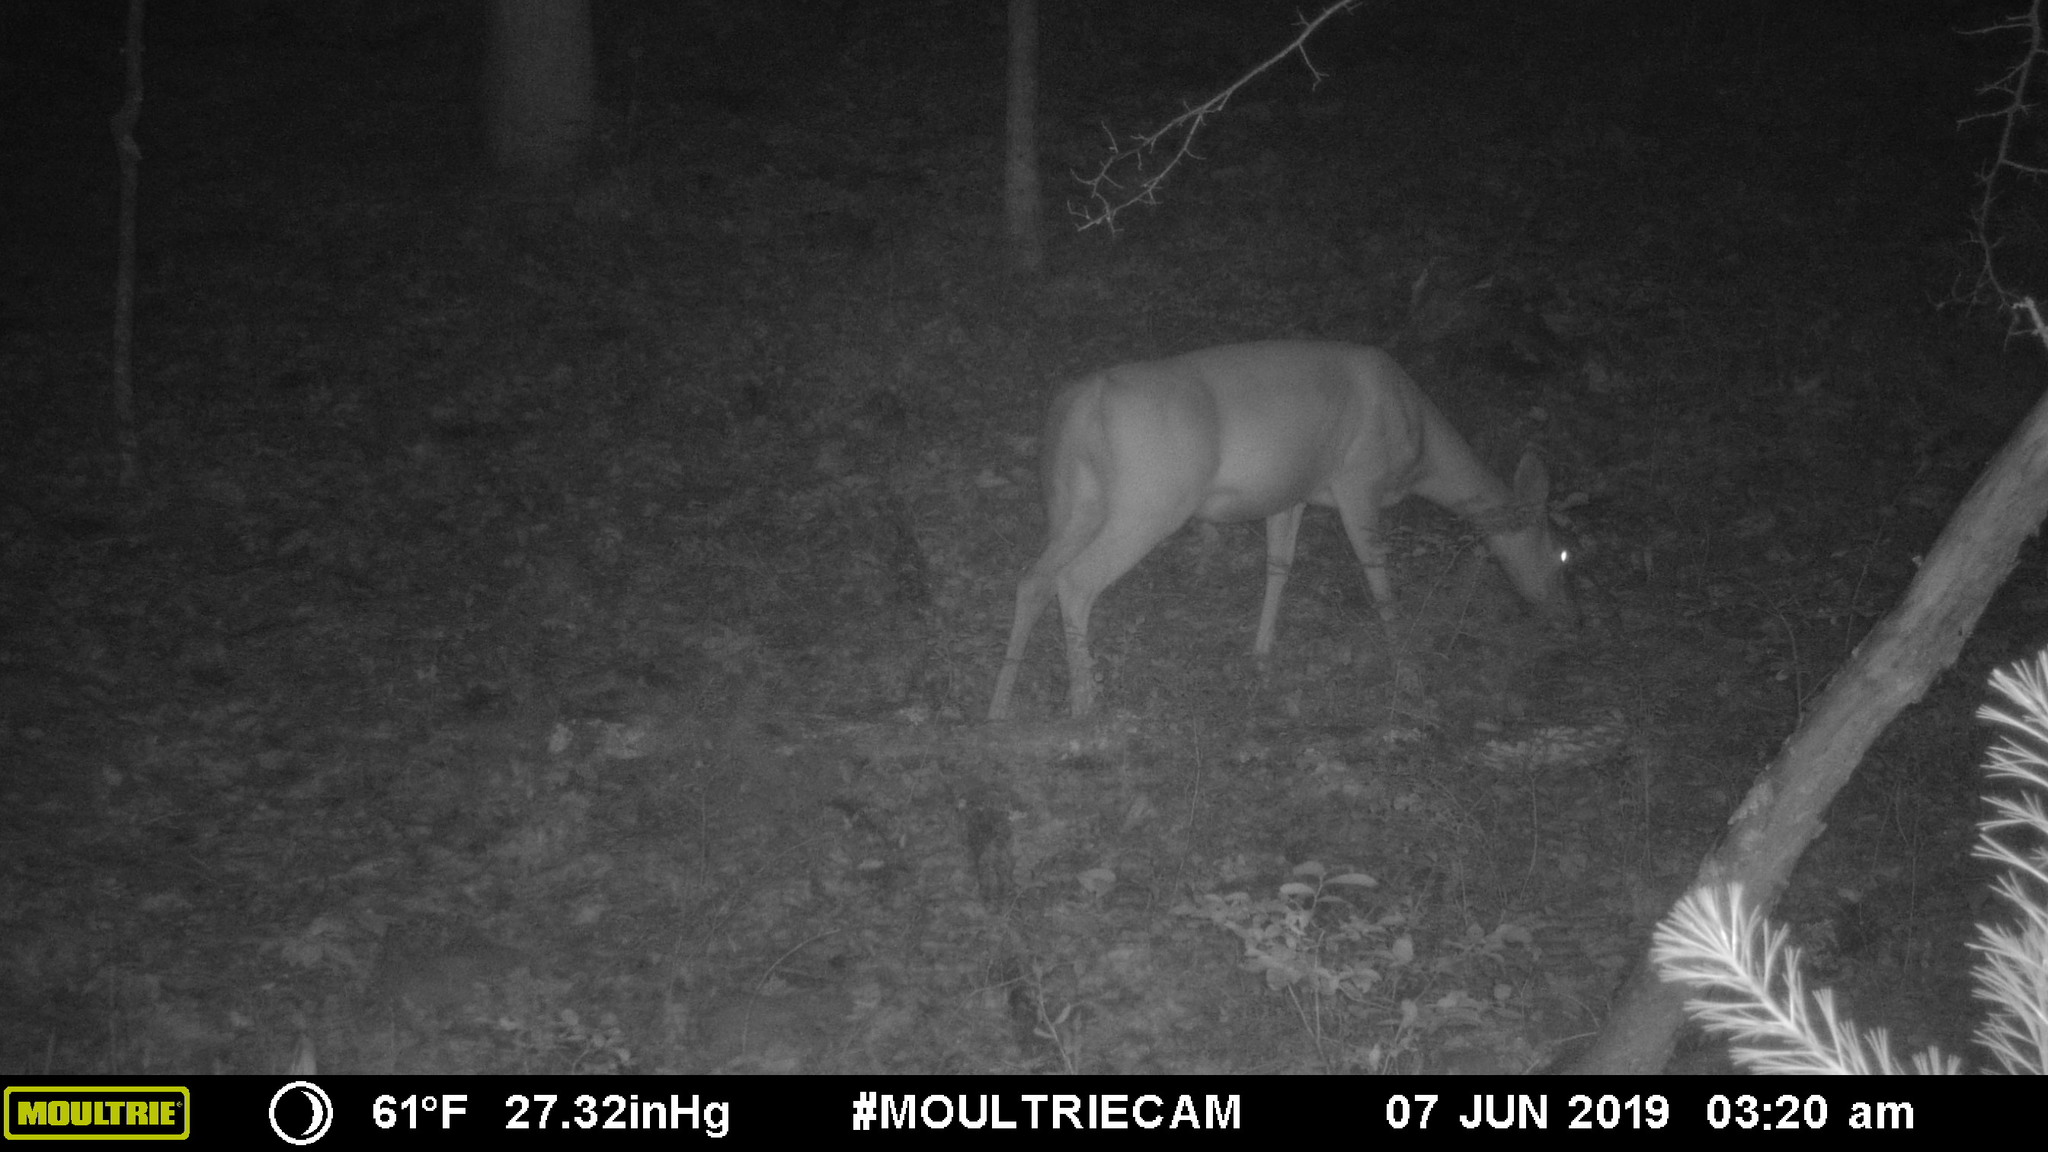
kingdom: Animalia
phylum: Chordata
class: Mammalia
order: Artiodactyla
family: Cervidae
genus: Odocoileus
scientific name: Odocoileus virginianus
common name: White-tailed deer
